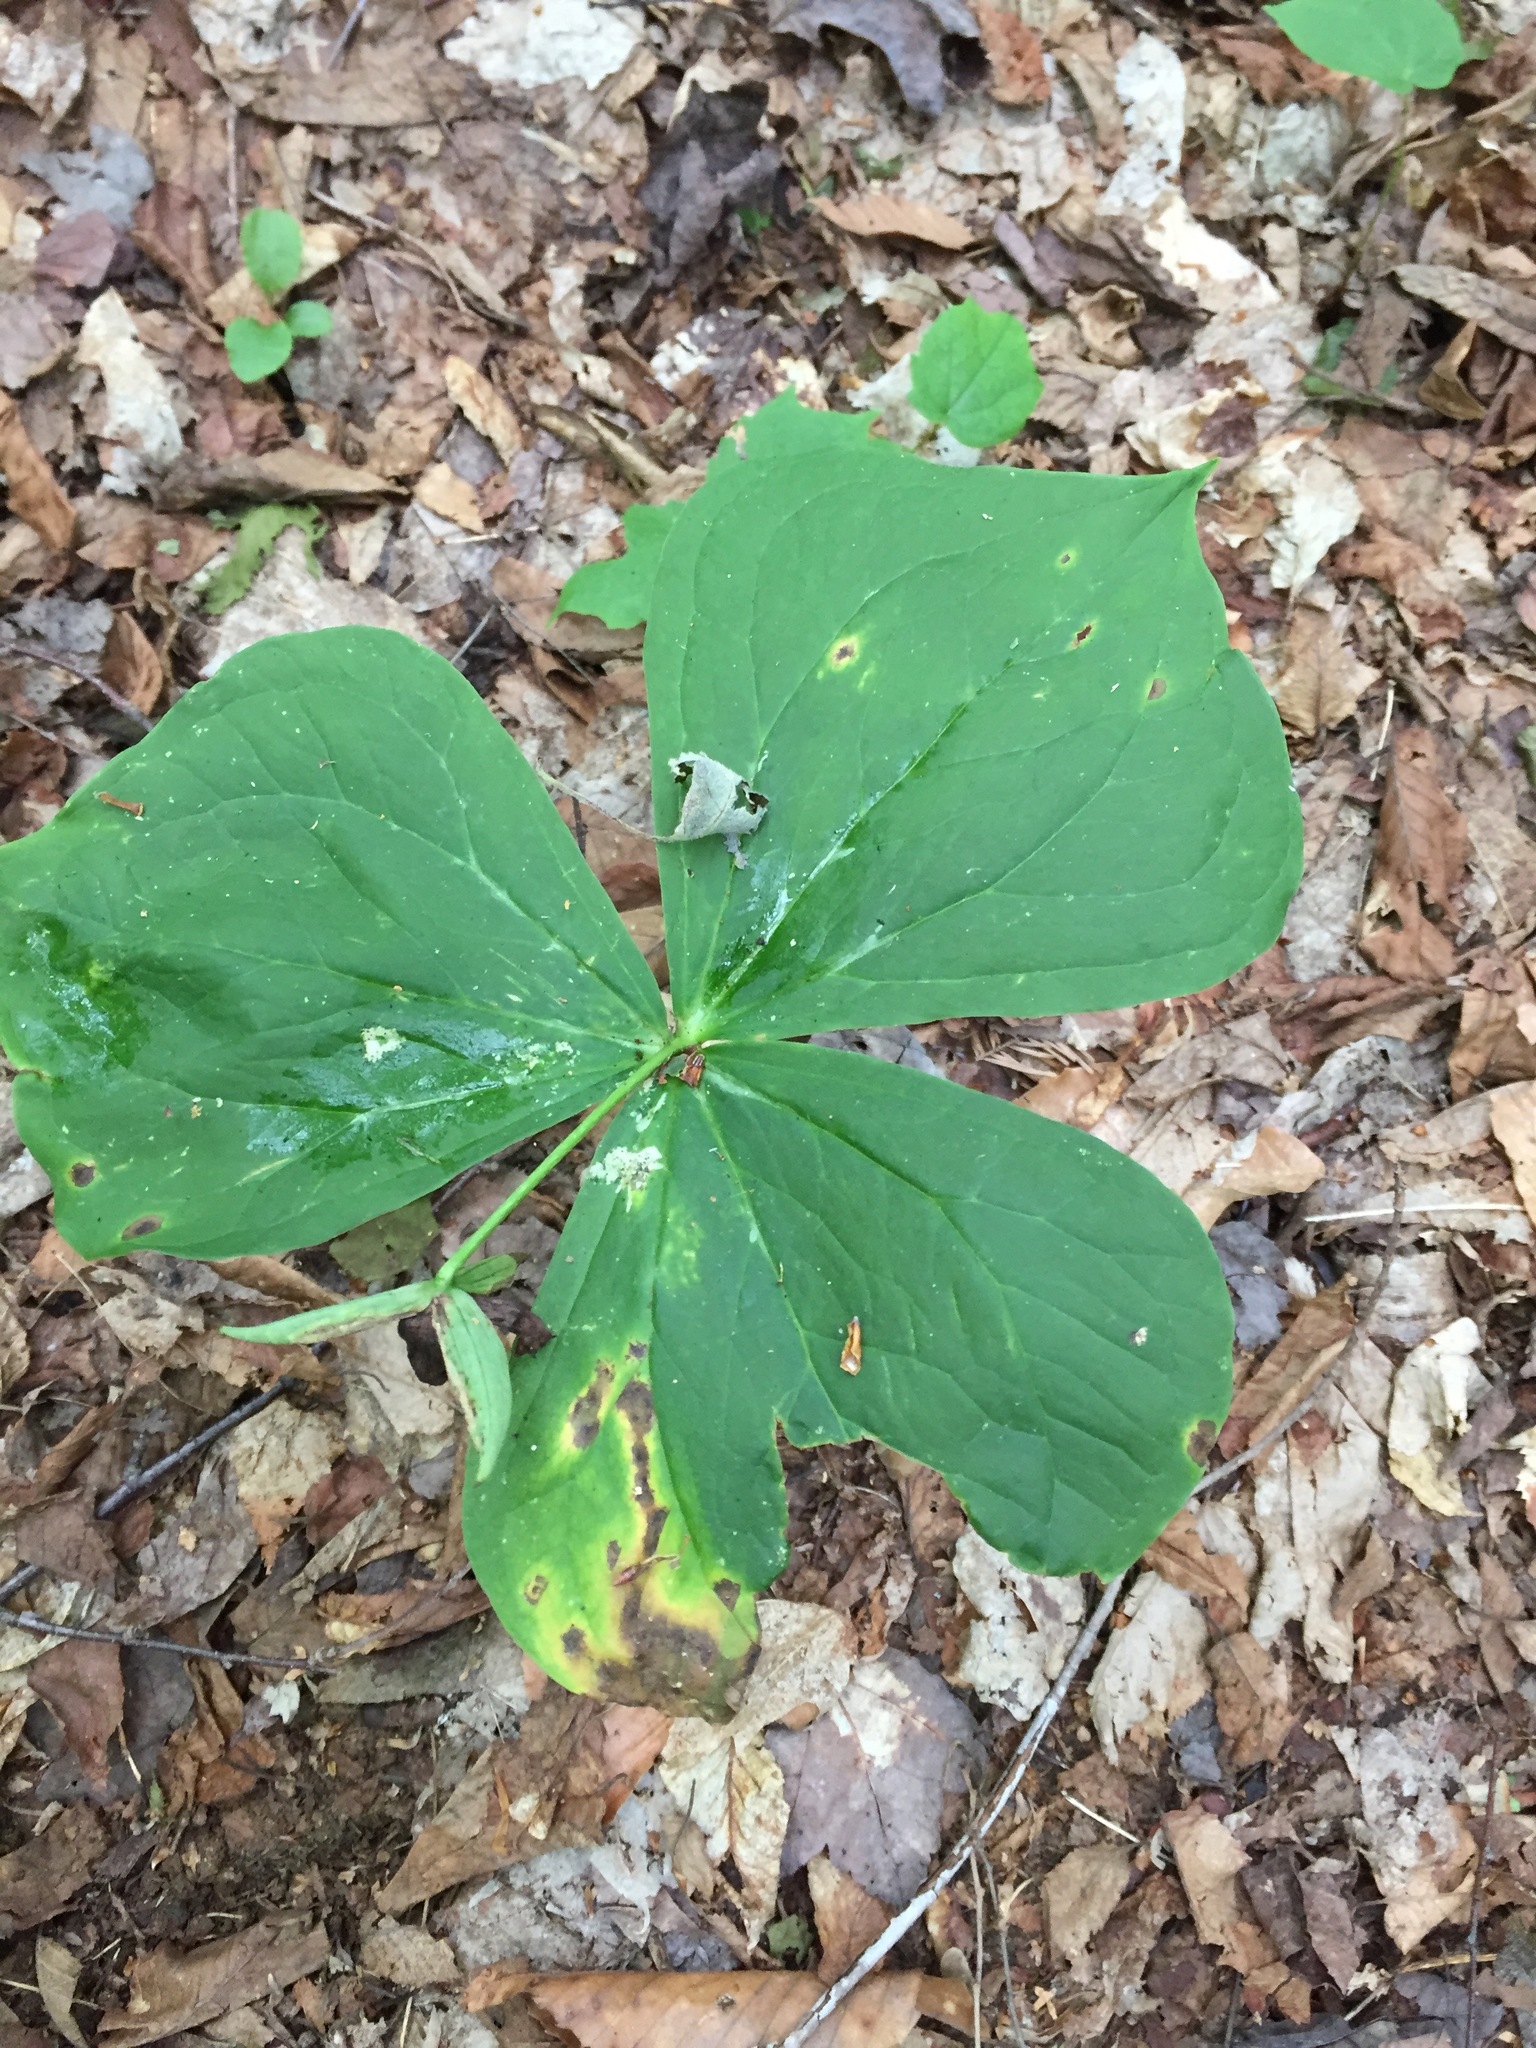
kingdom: Plantae
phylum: Tracheophyta
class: Liliopsida
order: Liliales
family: Melanthiaceae
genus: Trillium
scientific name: Trillium erectum
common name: Purple trillium
